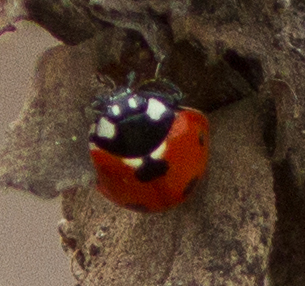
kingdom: Animalia
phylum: Arthropoda
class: Insecta
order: Coleoptera
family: Coccinellidae
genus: Coccinella
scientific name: Coccinella septempunctata
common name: Sevenspotted lady beetle
